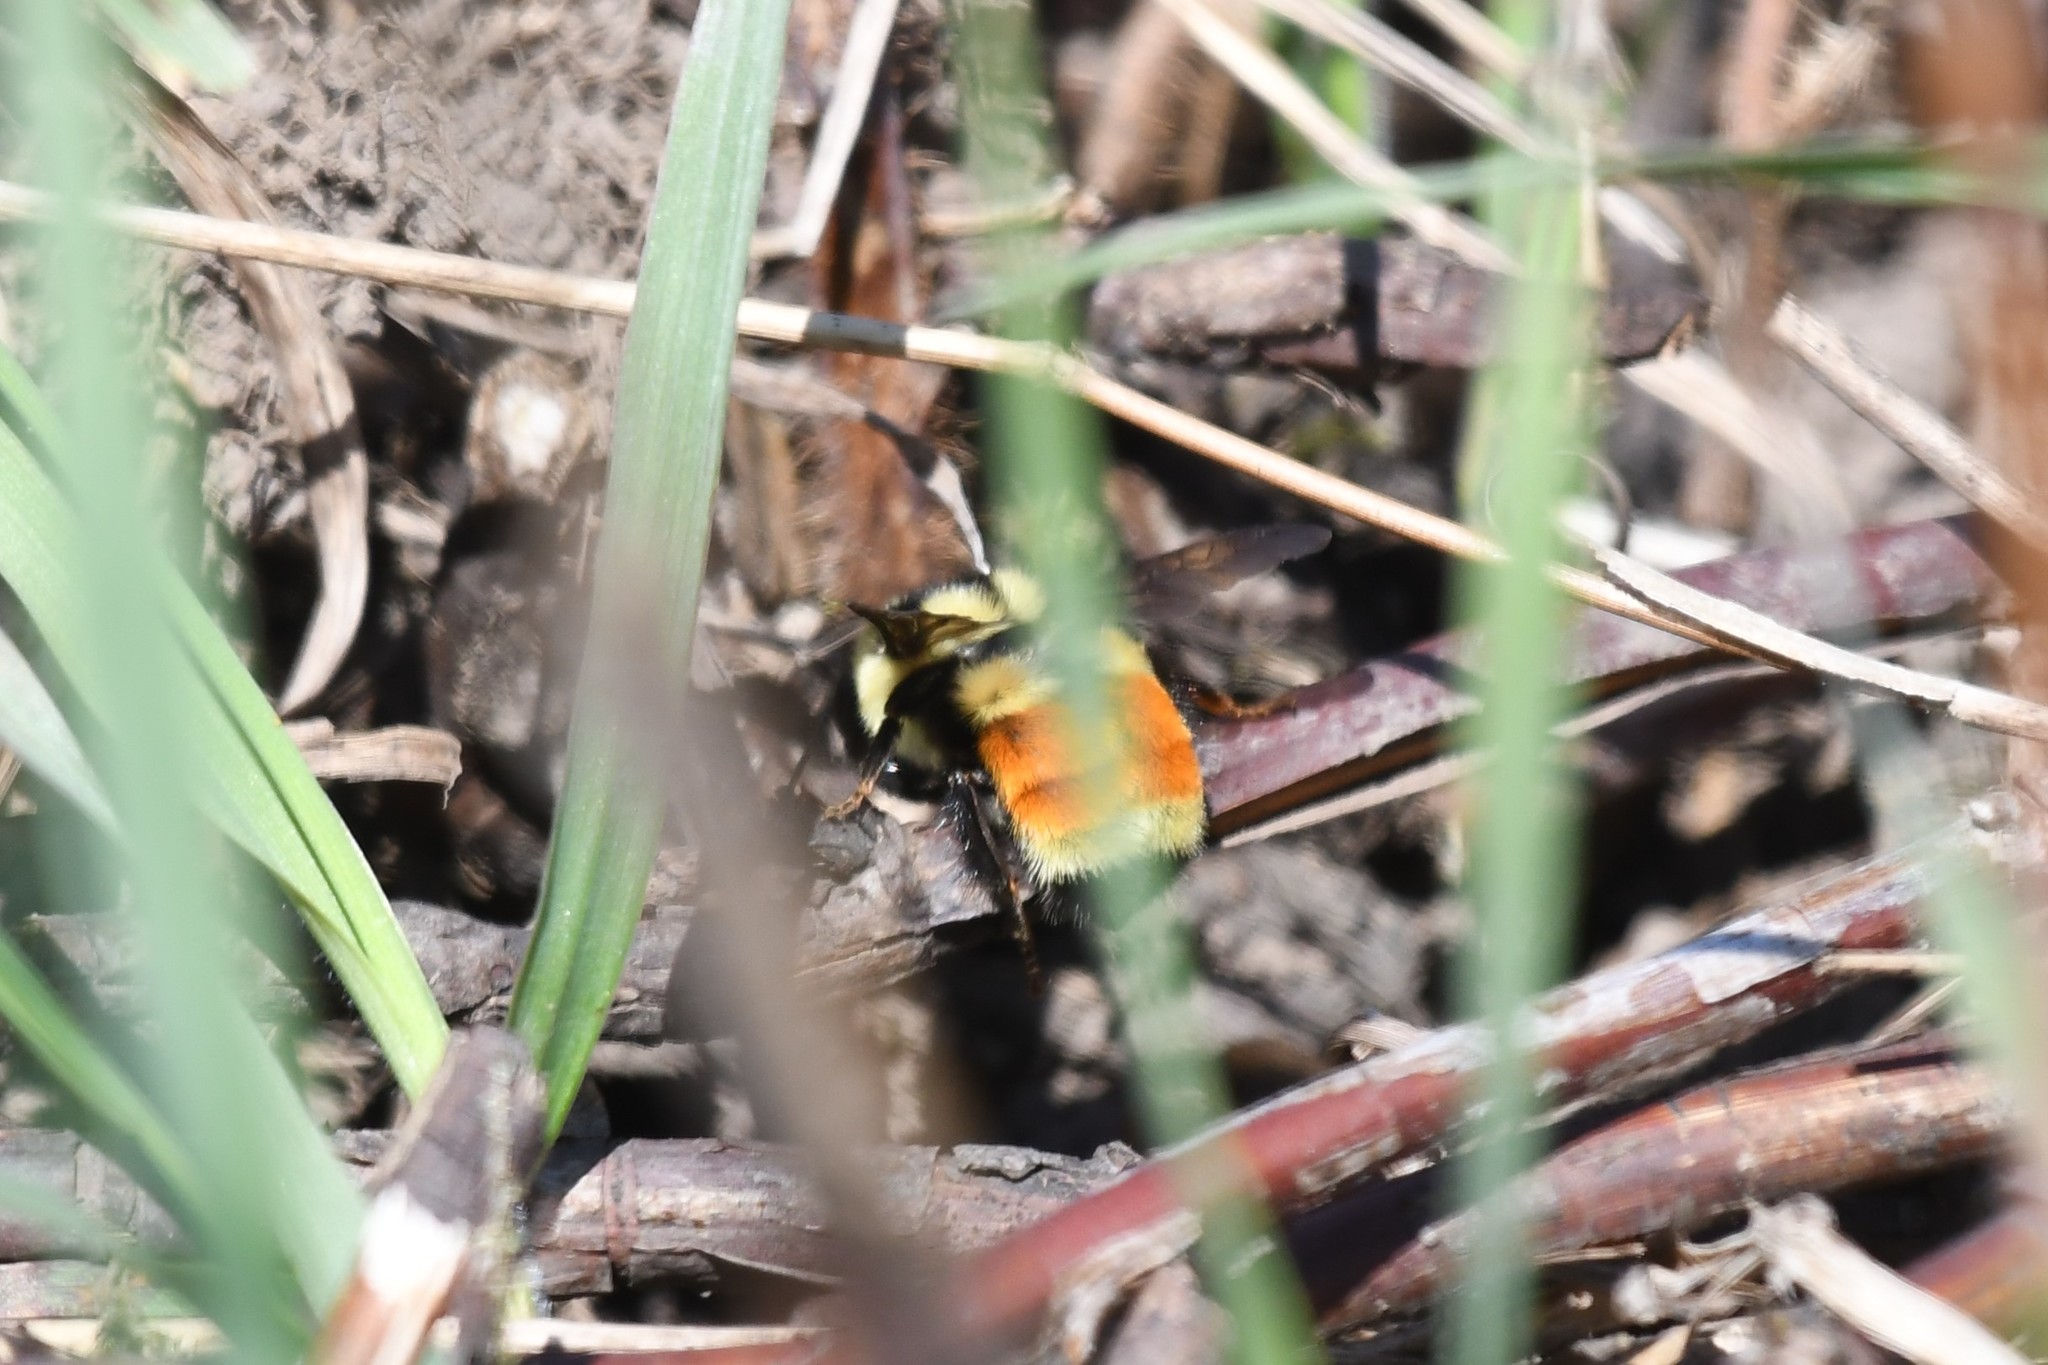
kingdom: Animalia
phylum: Arthropoda
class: Insecta
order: Hymenoptera
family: Apidae
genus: Bombus
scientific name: Bombus ternarius
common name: Tri-colored bumble bee
